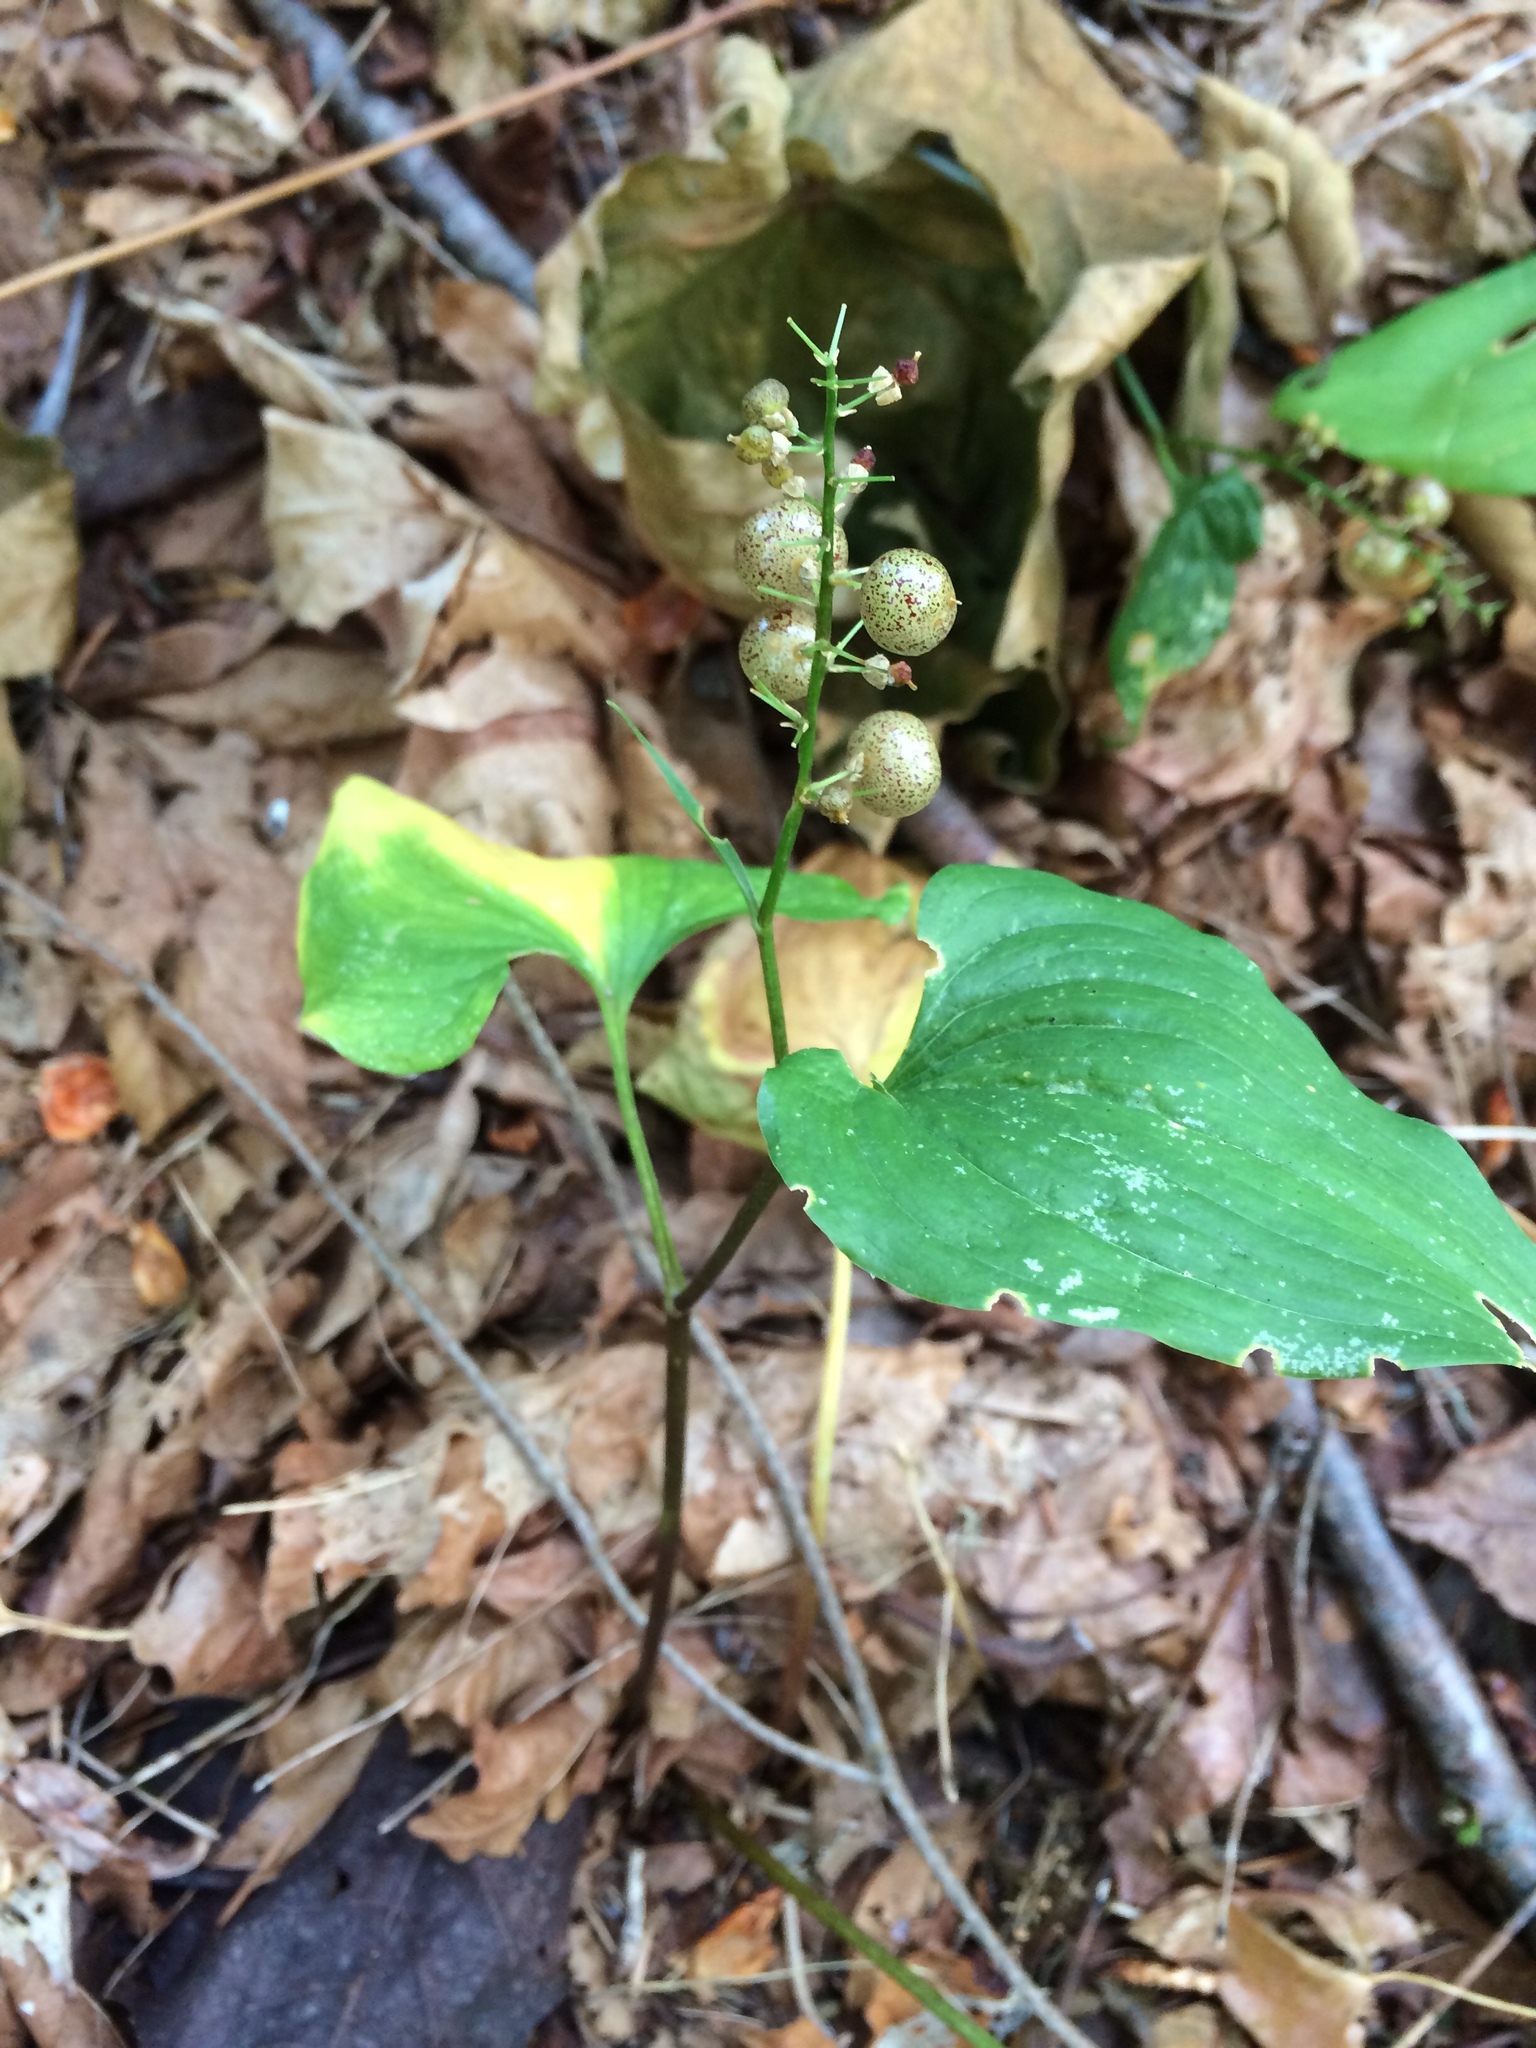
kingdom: Plantae
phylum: Tracheophyta
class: Liliopsida
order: Asparagales
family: Asparagaceae
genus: Maianthemum
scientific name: Maianthemum dilatatum
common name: False lily-of-the-valley
